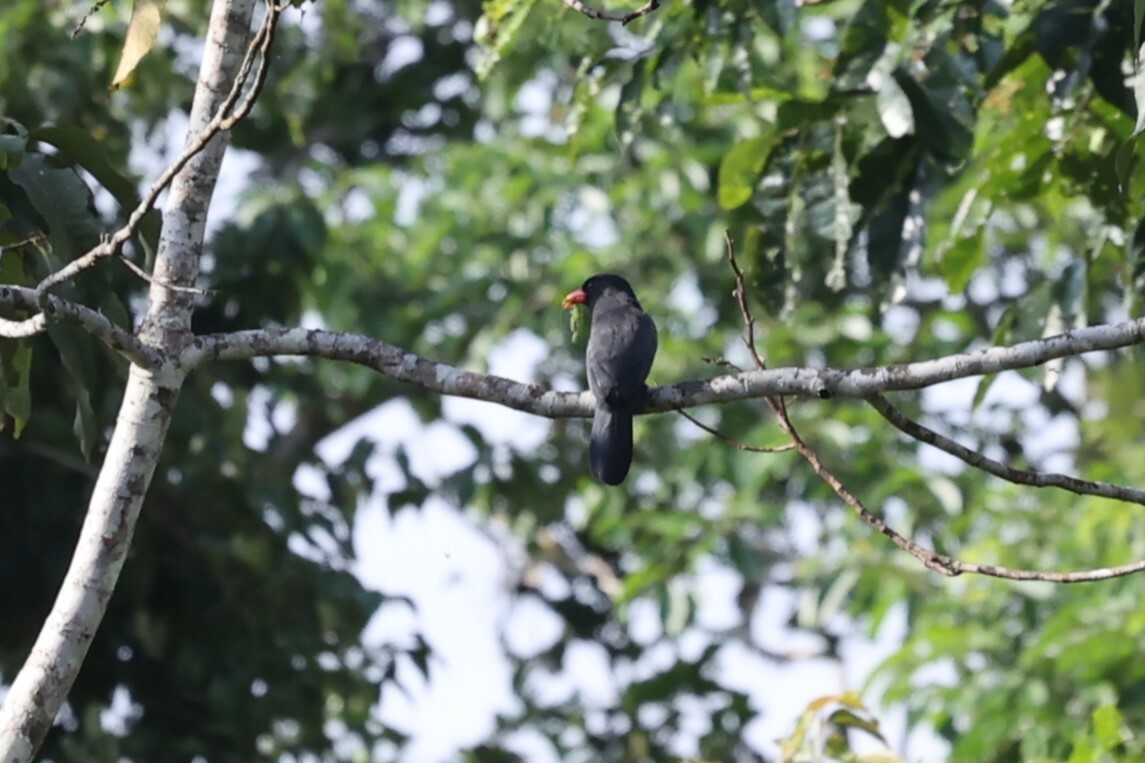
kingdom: Animalia
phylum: Chordata
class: Aves
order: Piciformes
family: Bucconidae
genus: Monasa
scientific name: Monasa nigrifrons
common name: Black-fronted nunbird
